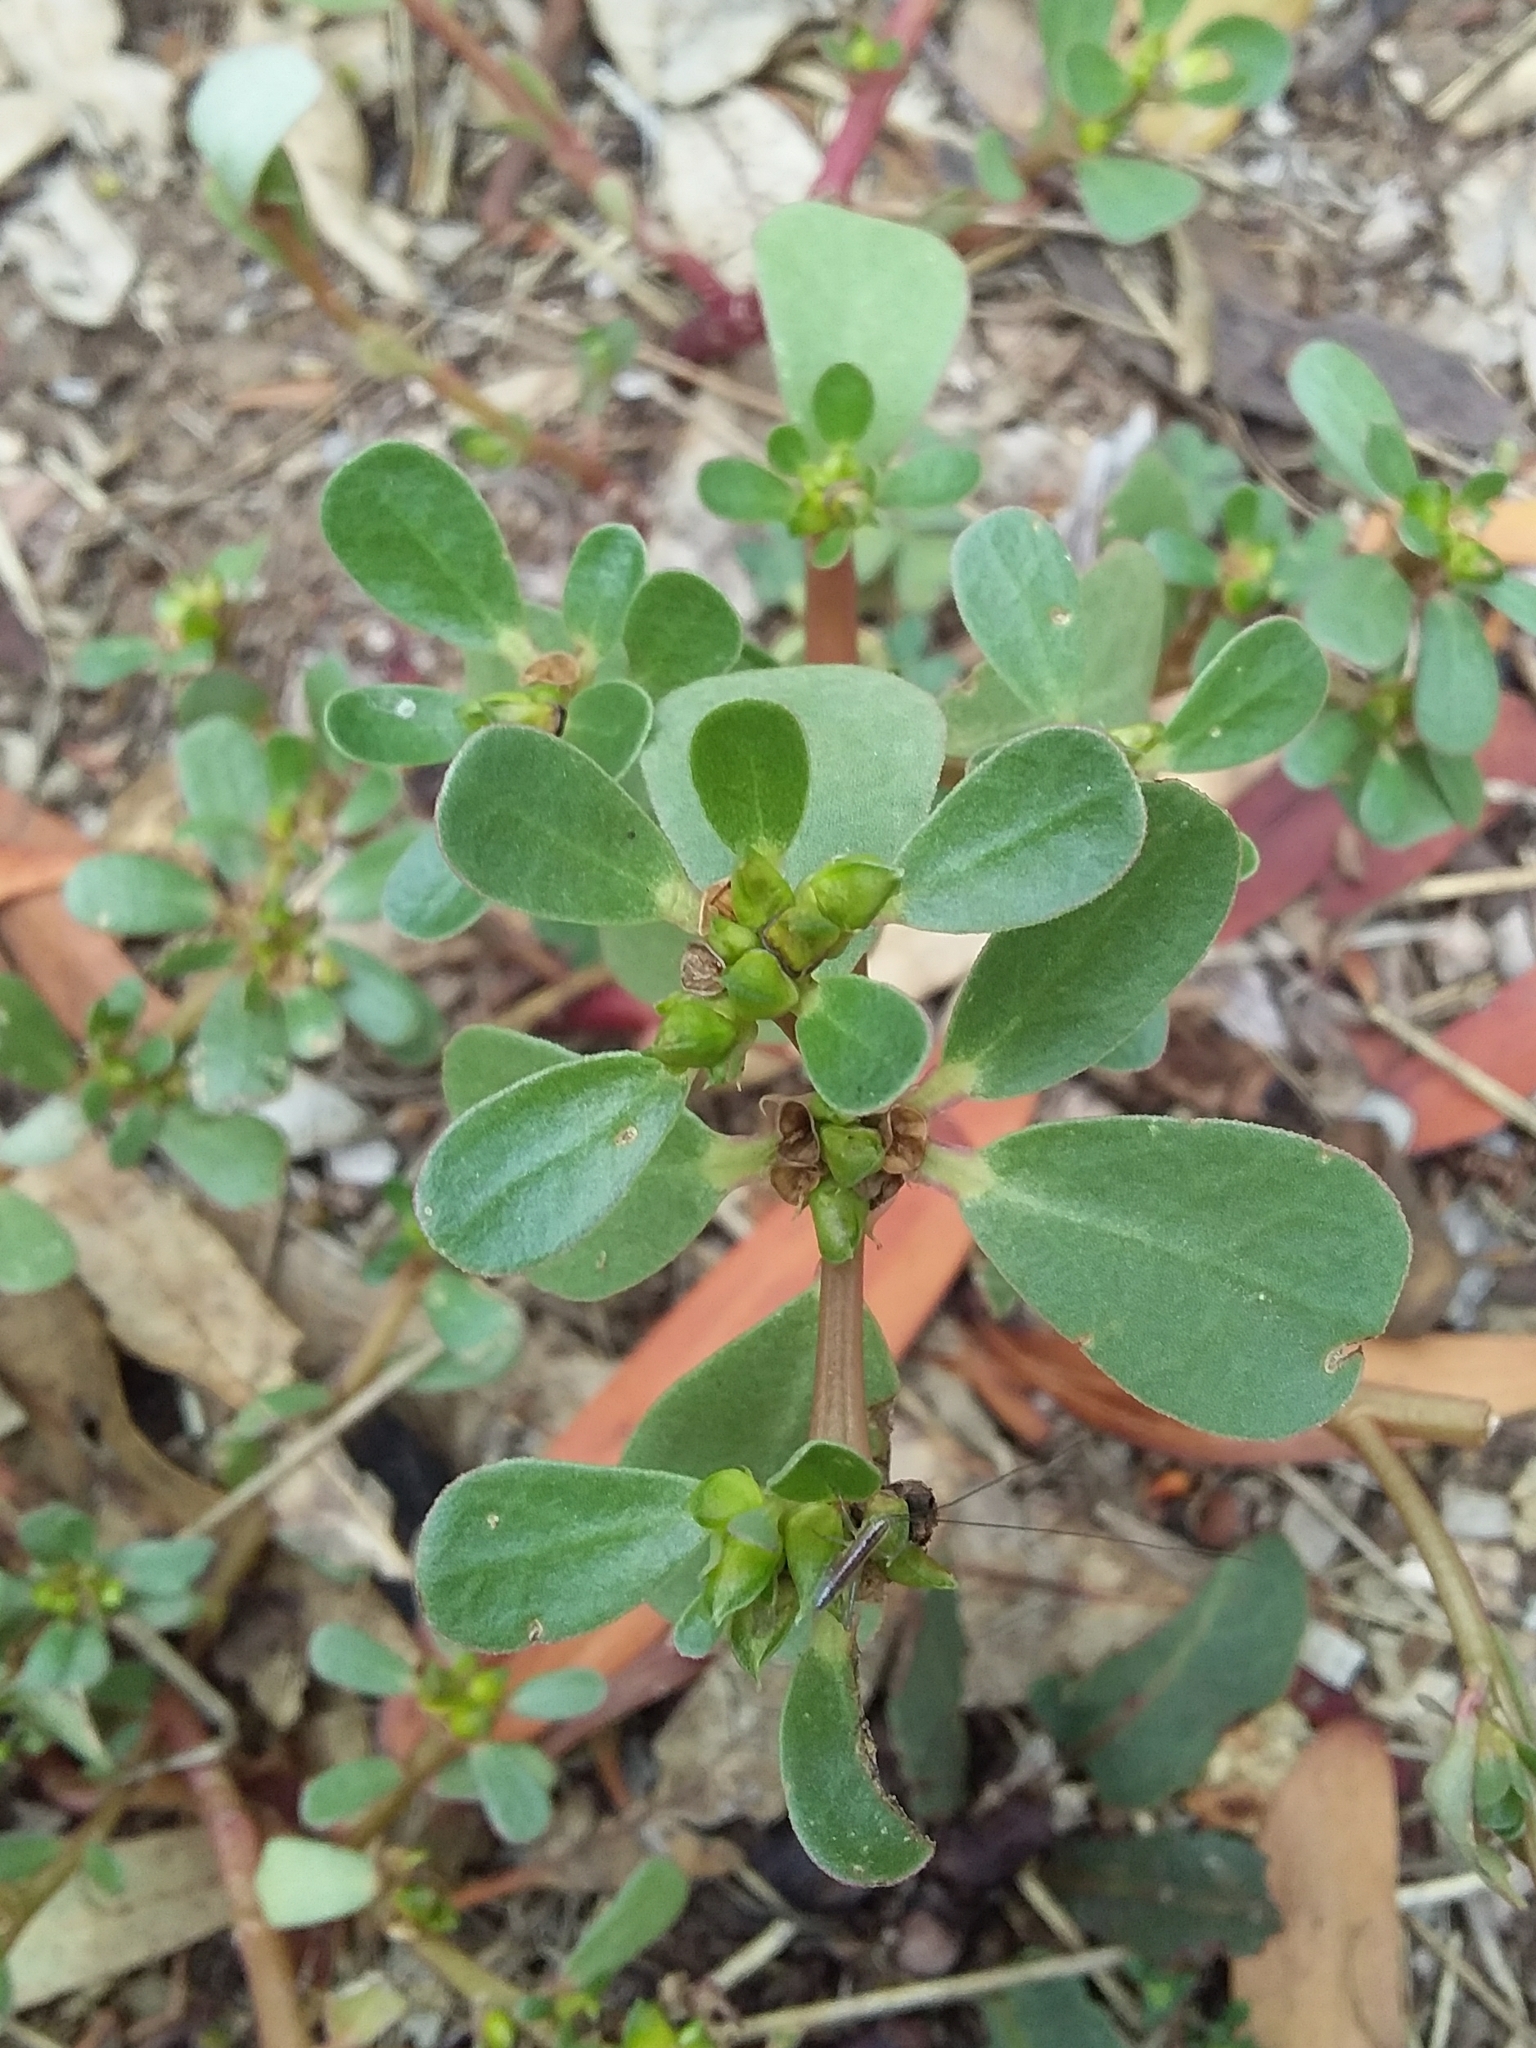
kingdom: Plantae
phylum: Tracheophyta
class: Magnoliopsida
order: Caryophyllales
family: Portulacaceae
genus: Portulaca
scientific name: Portulaca oleracea
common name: Common purslane
